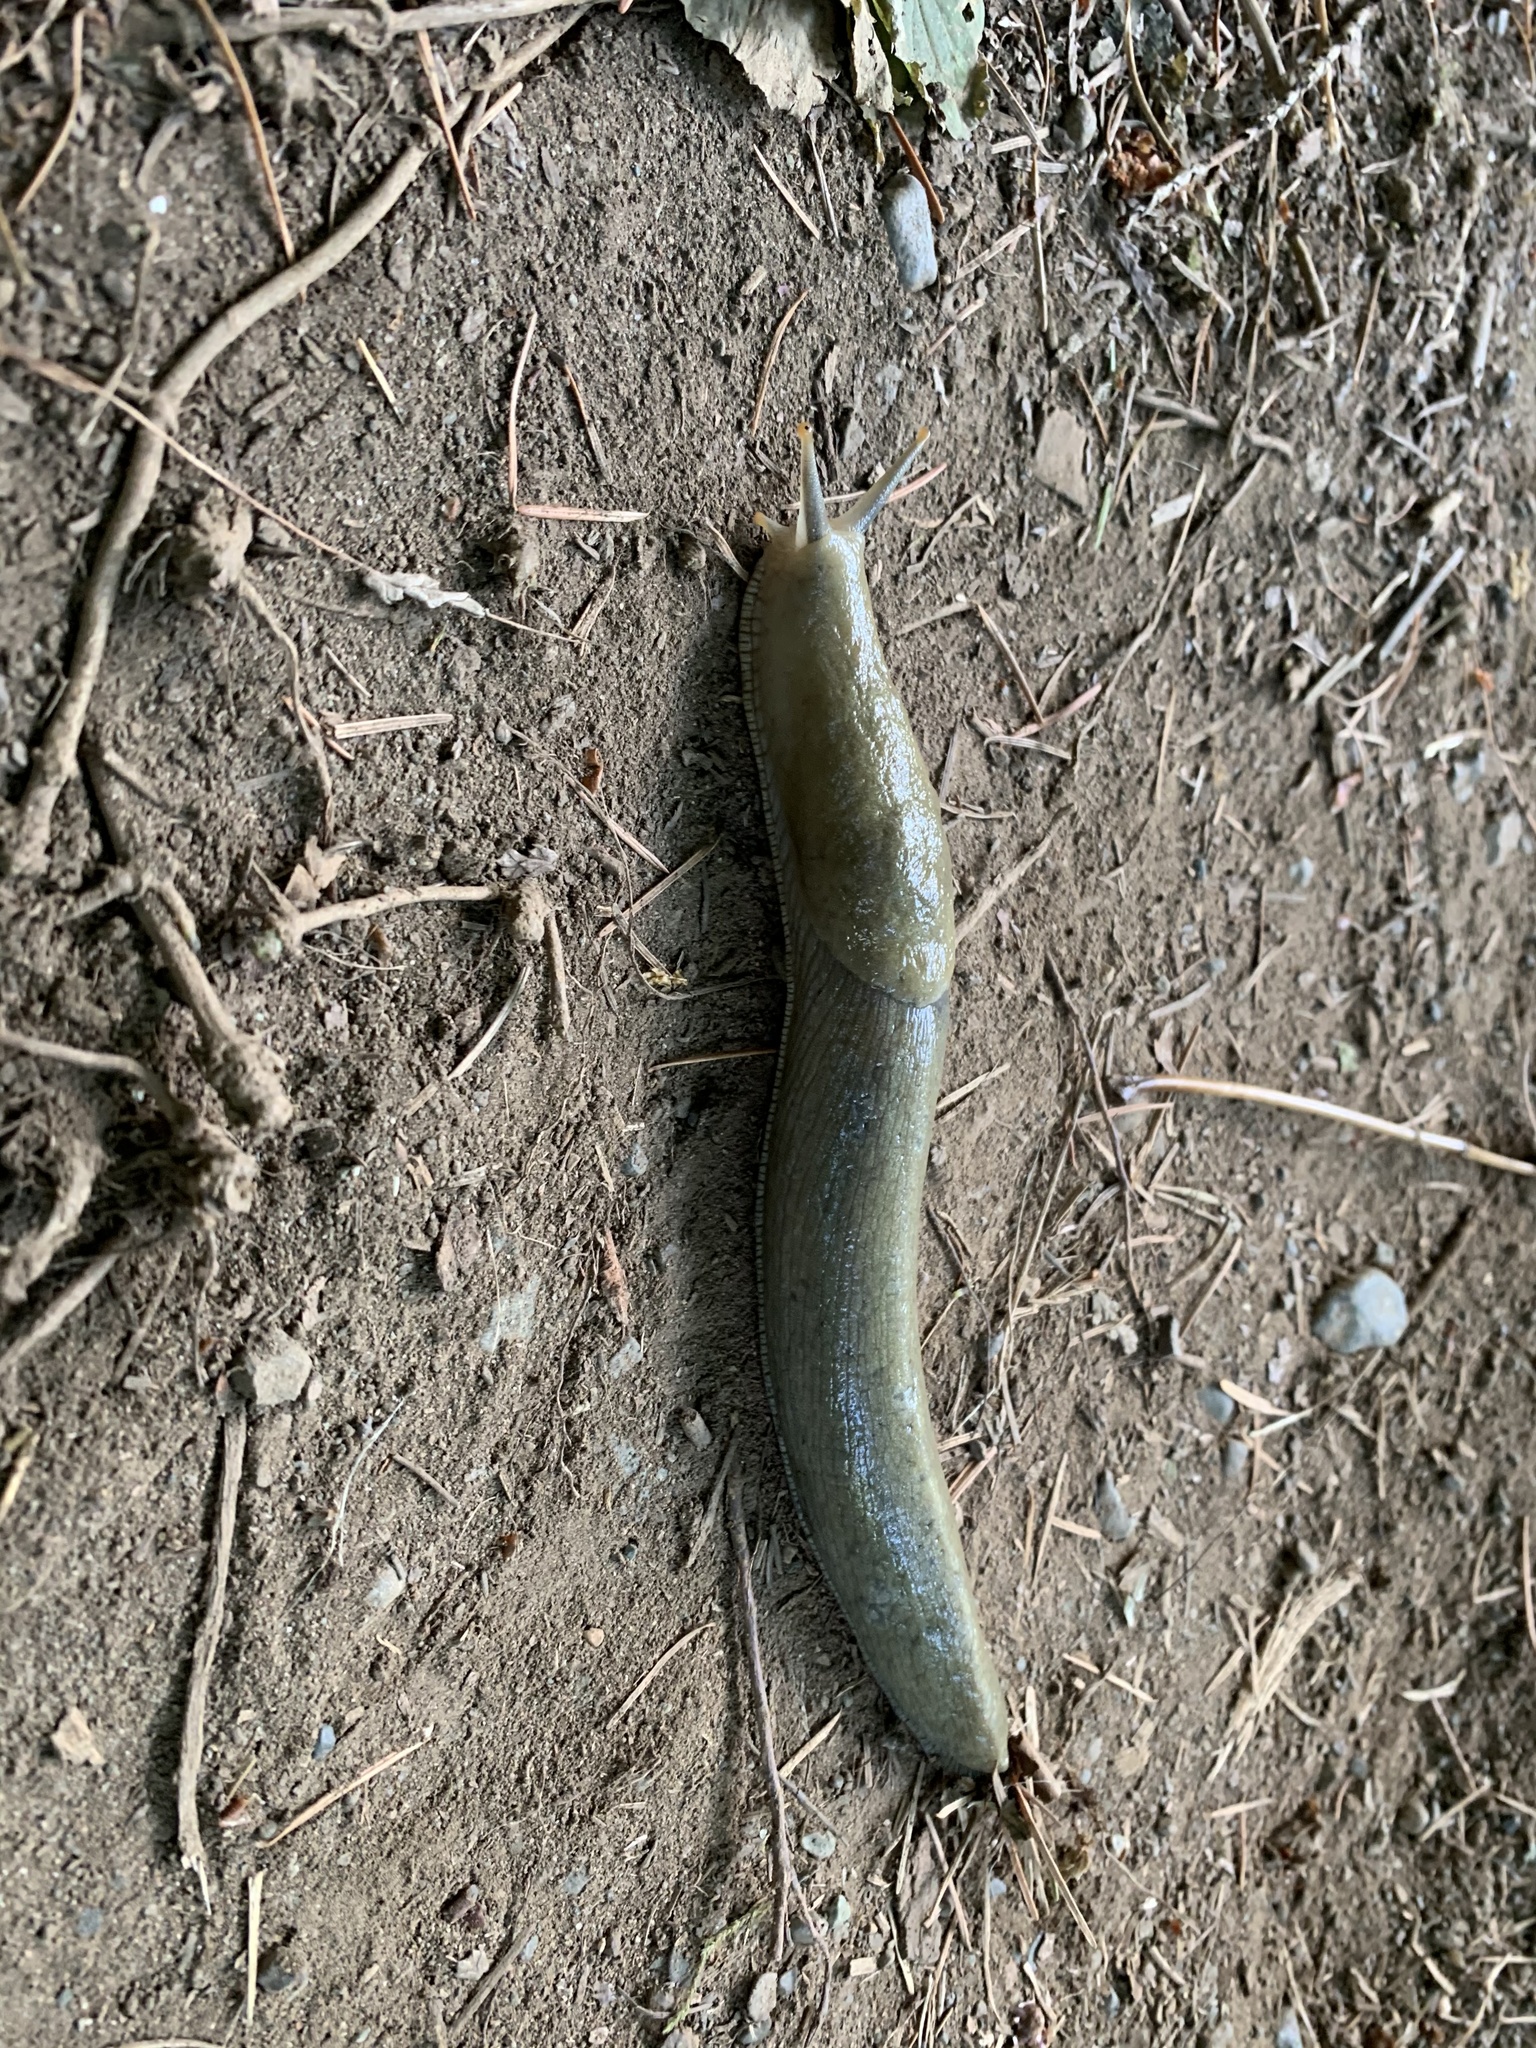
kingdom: Animalia
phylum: Mollusca
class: Gastropoda
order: Stylommatophora
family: Ariolimacidae
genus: Ariolimax
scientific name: Ariolimax columbianus
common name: Pacific banana slug
